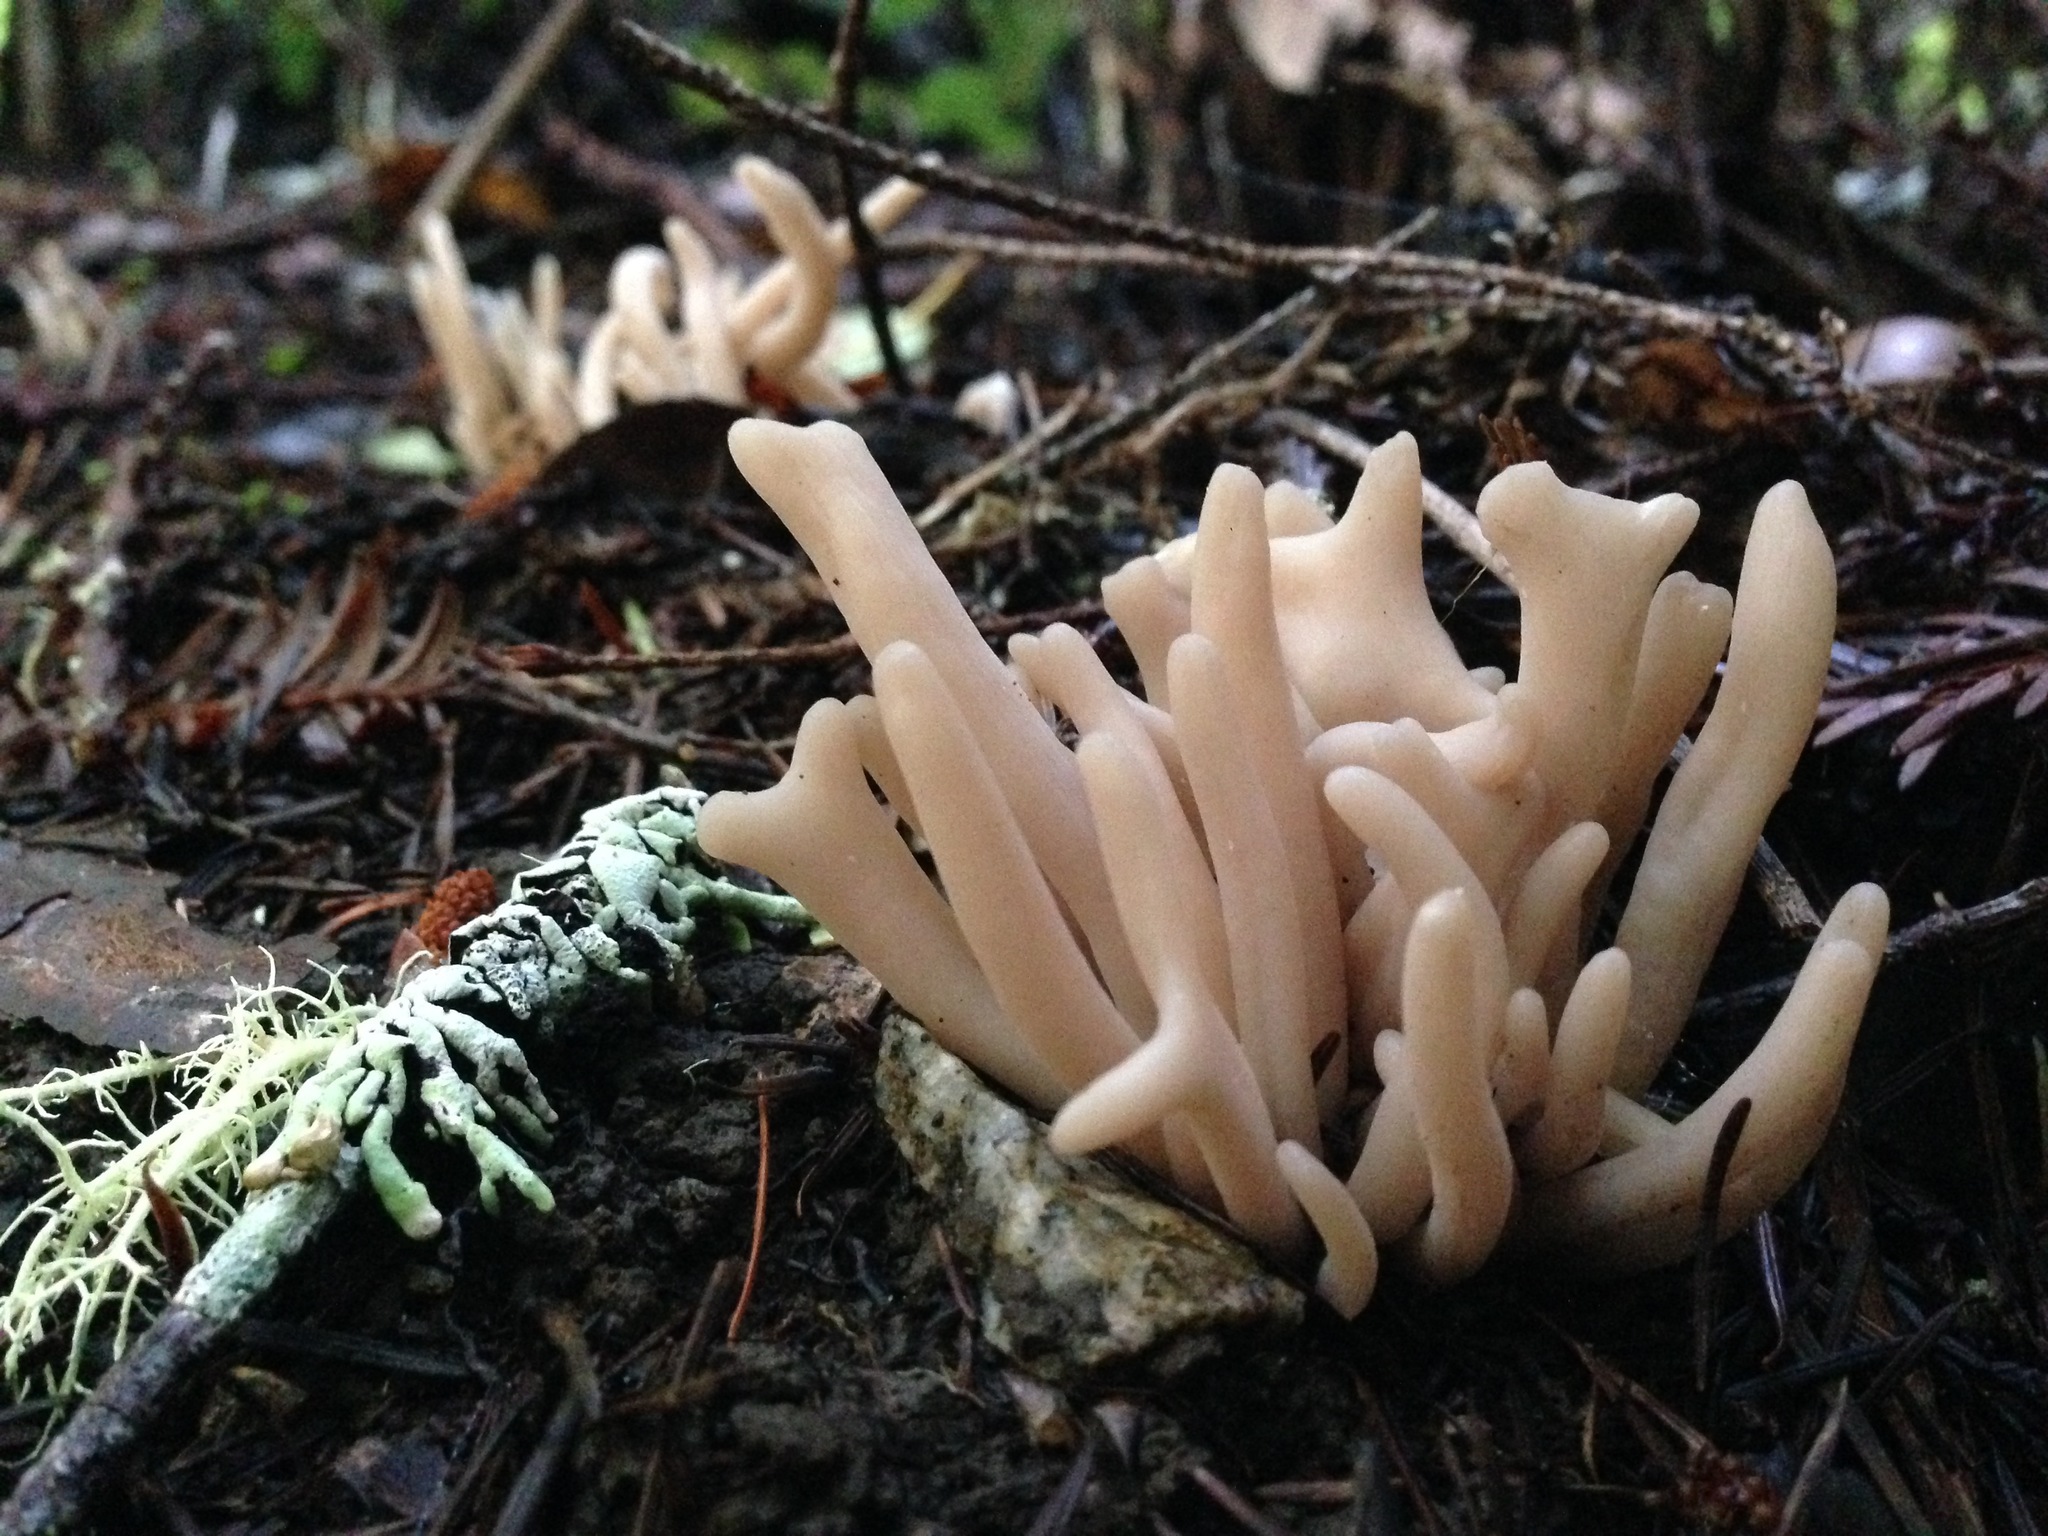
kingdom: Fungi
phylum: Basidiomycota
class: Agaricomycetes
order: Agaricales
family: Clavariaceae
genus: Clavaria
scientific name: Clavaria fumosa
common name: Smoky spindles
